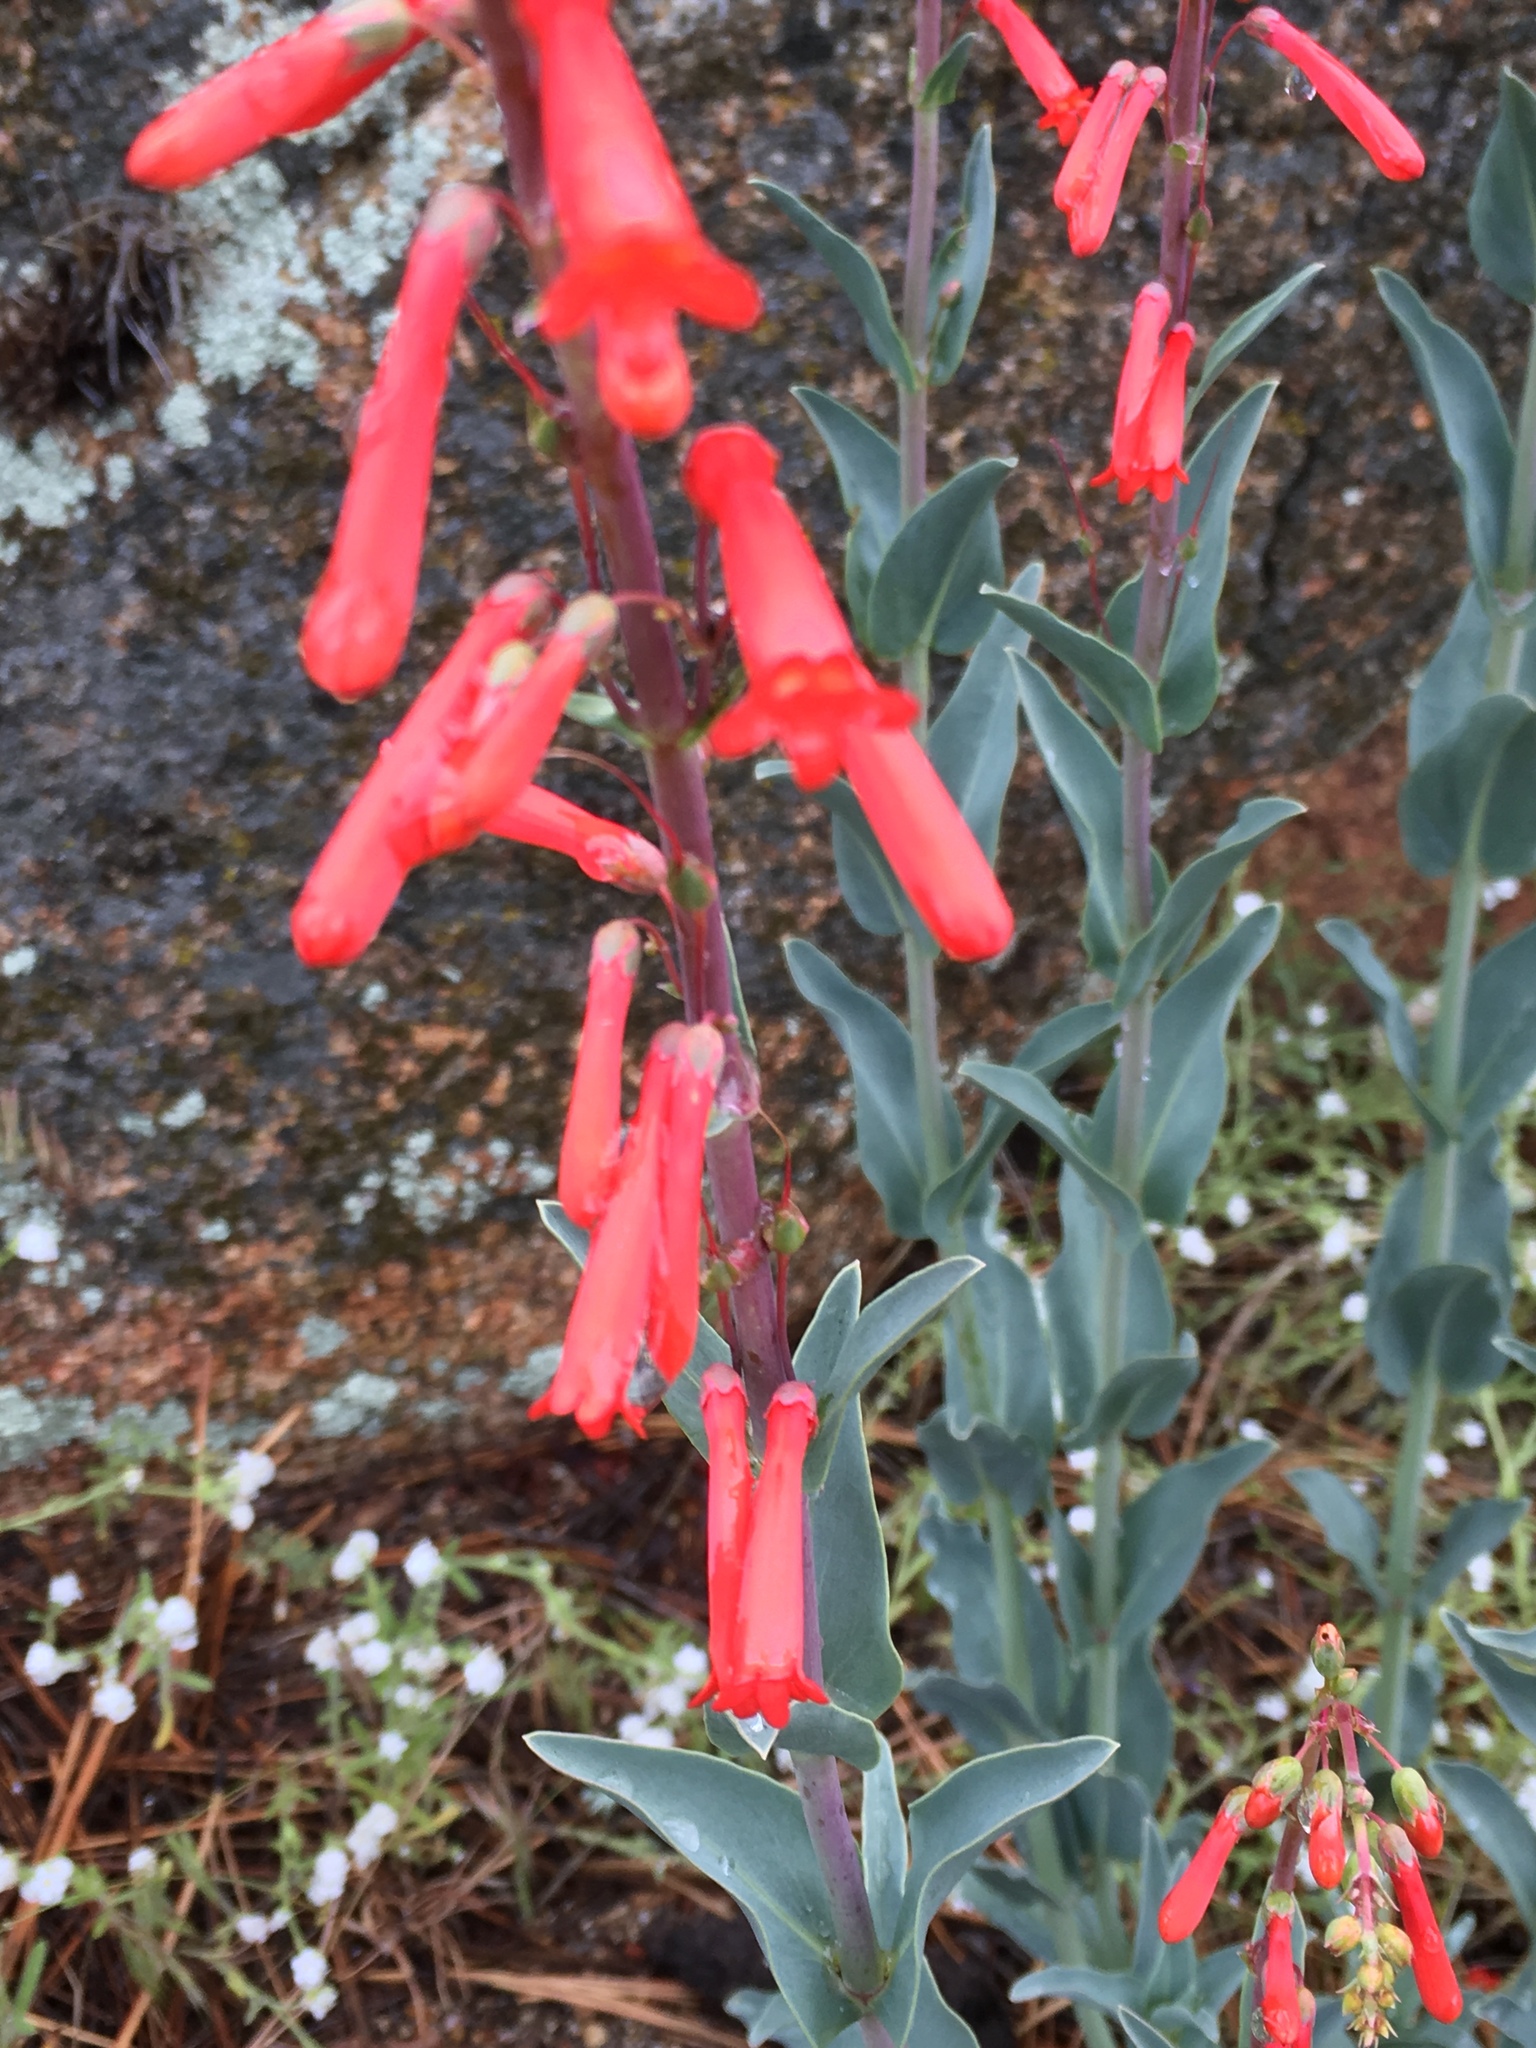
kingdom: Plantae
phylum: Tracheophyta
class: Magnoliopsida
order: Lamiales
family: Plantaginaceae
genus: Penstemon
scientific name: Penstemon centranthifolius
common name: Scarlet bugler
